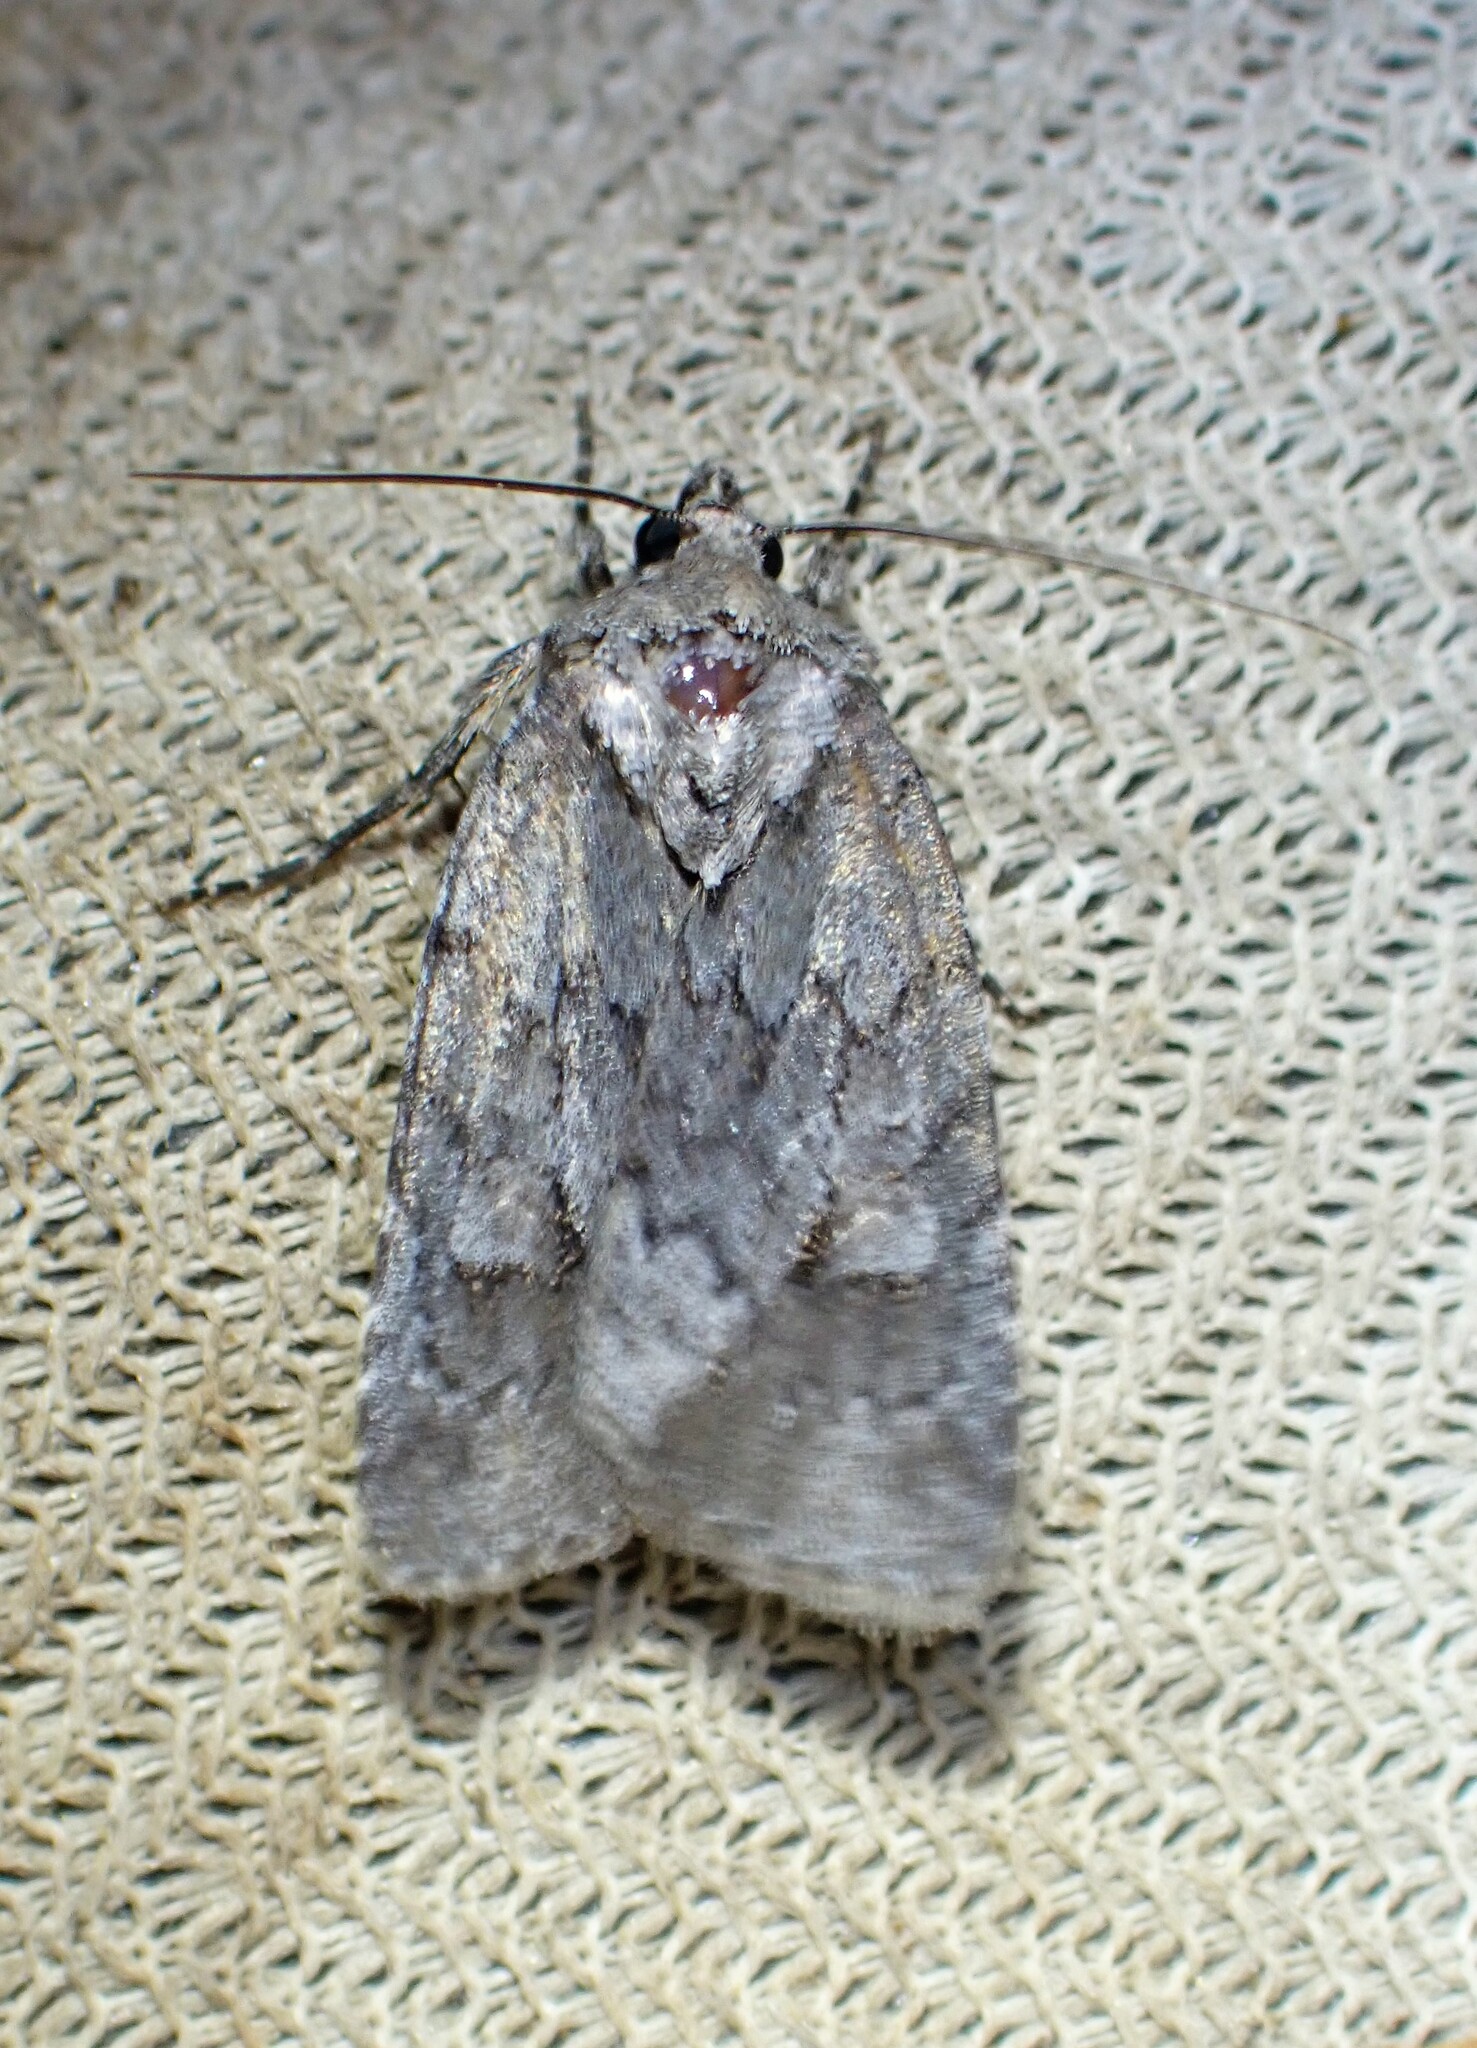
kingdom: Animalia
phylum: Arthropoda
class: Insecta
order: Lepidoptera
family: Noctuidae
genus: Sympistis
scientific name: Sympistis dentata
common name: Blueberry sallow
